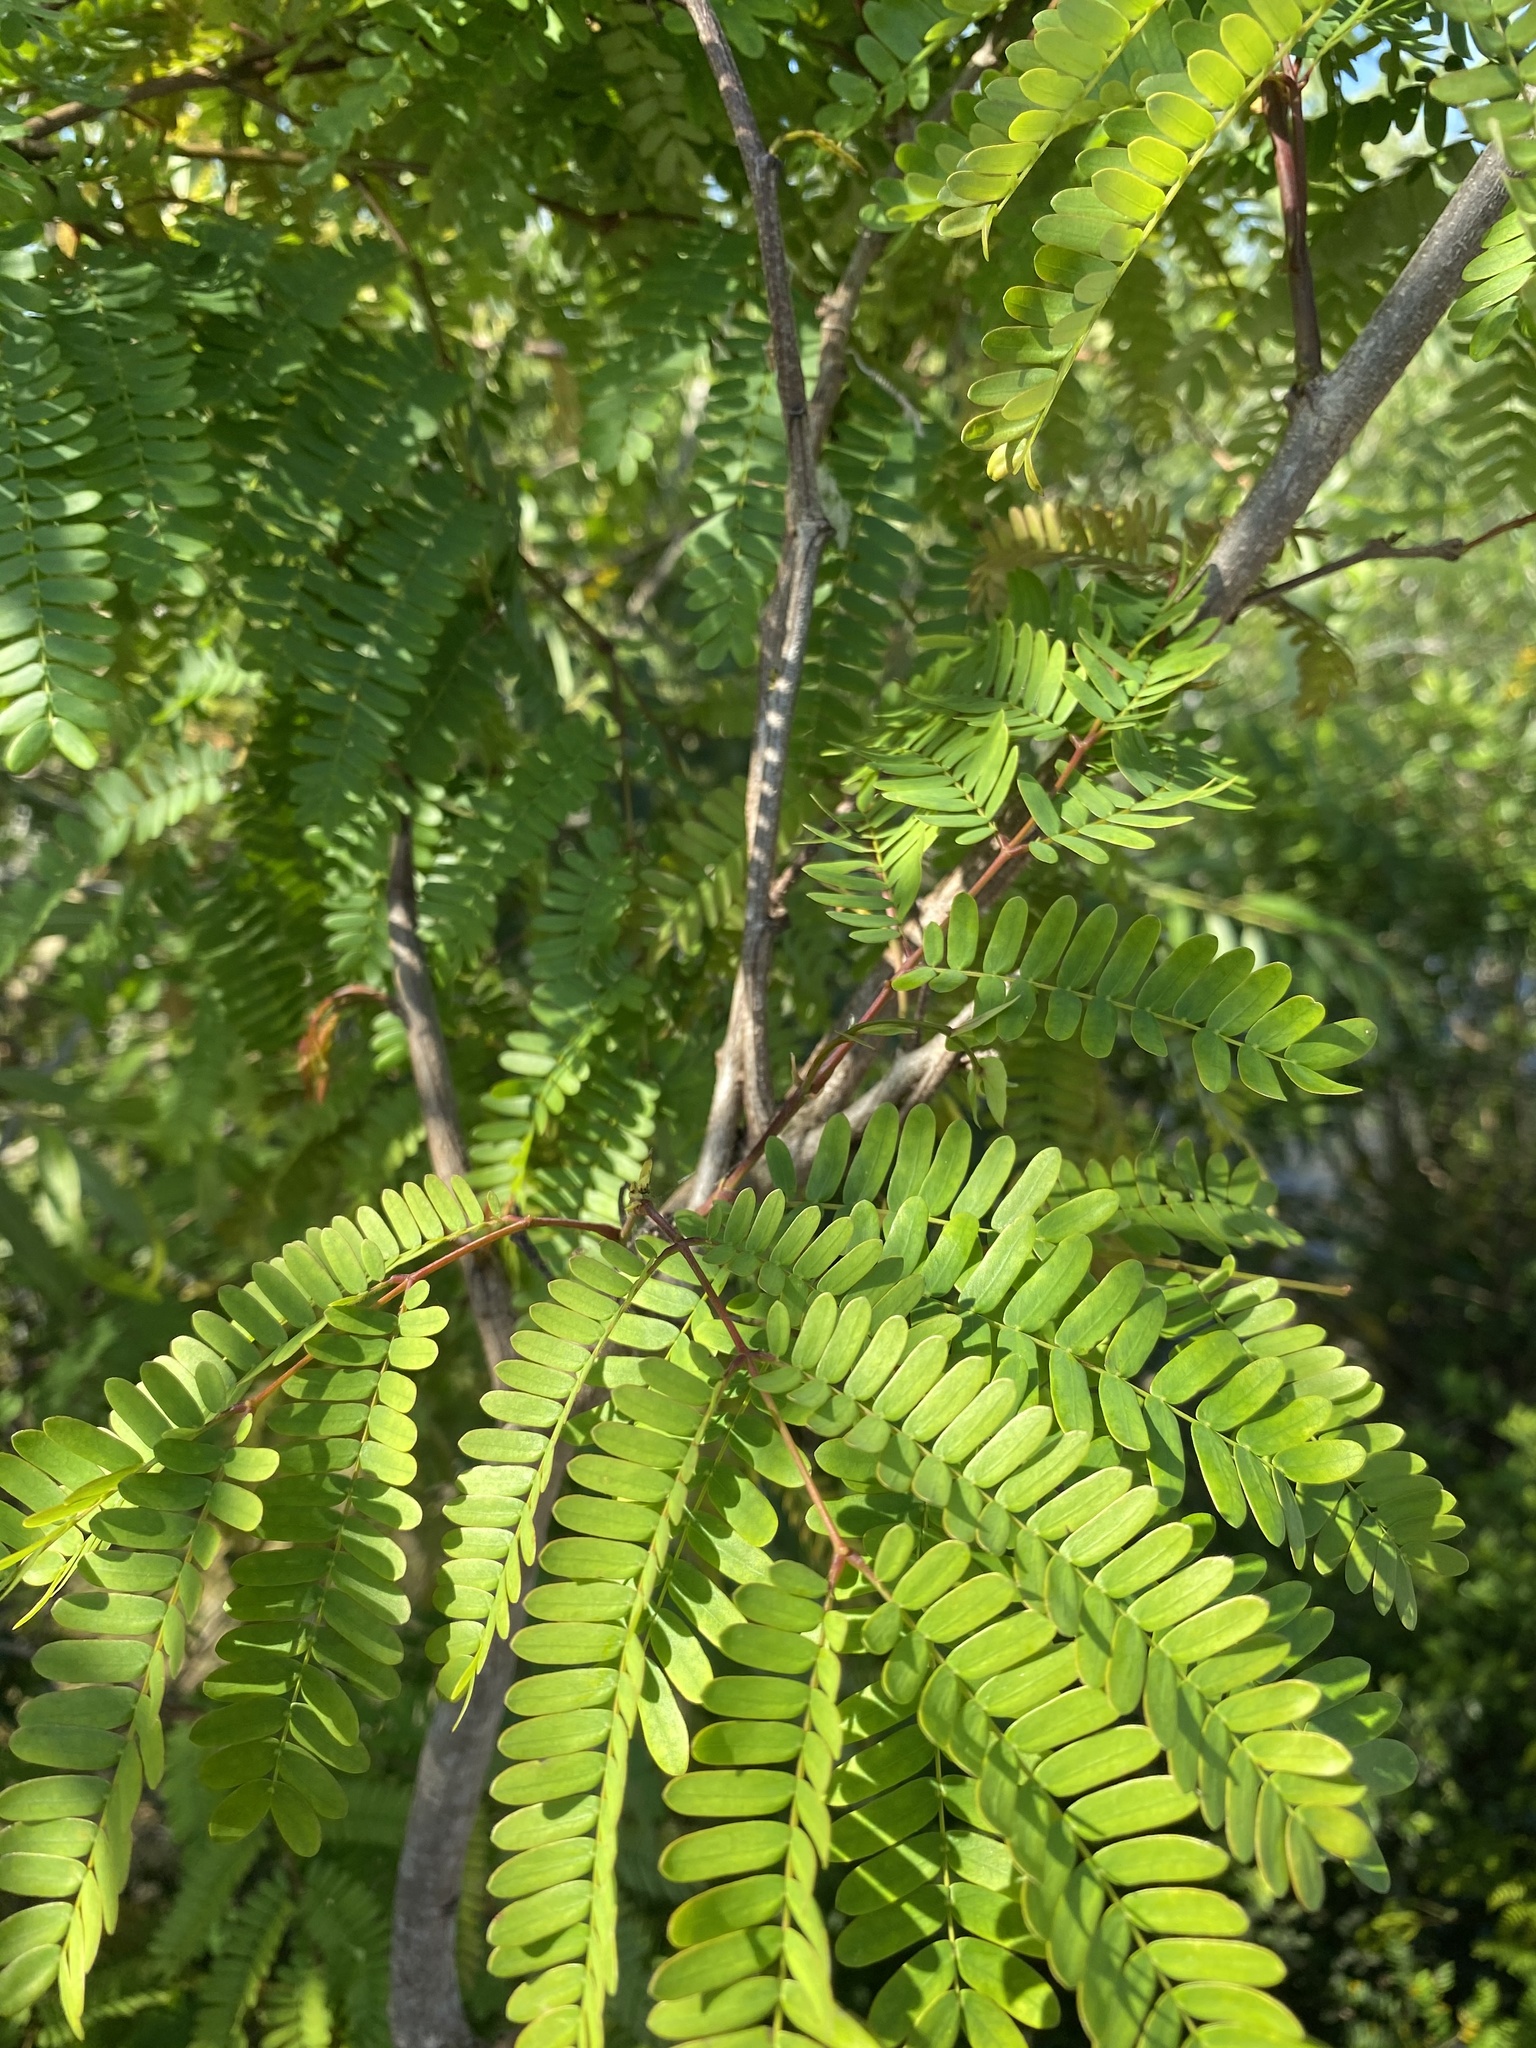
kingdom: Plantae
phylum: Tracheophyta
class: Magnoliopsida
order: Fabales
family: Fabaceae
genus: Lysiloma
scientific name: Lysiloma latisiliquum
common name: Wild tamarind
